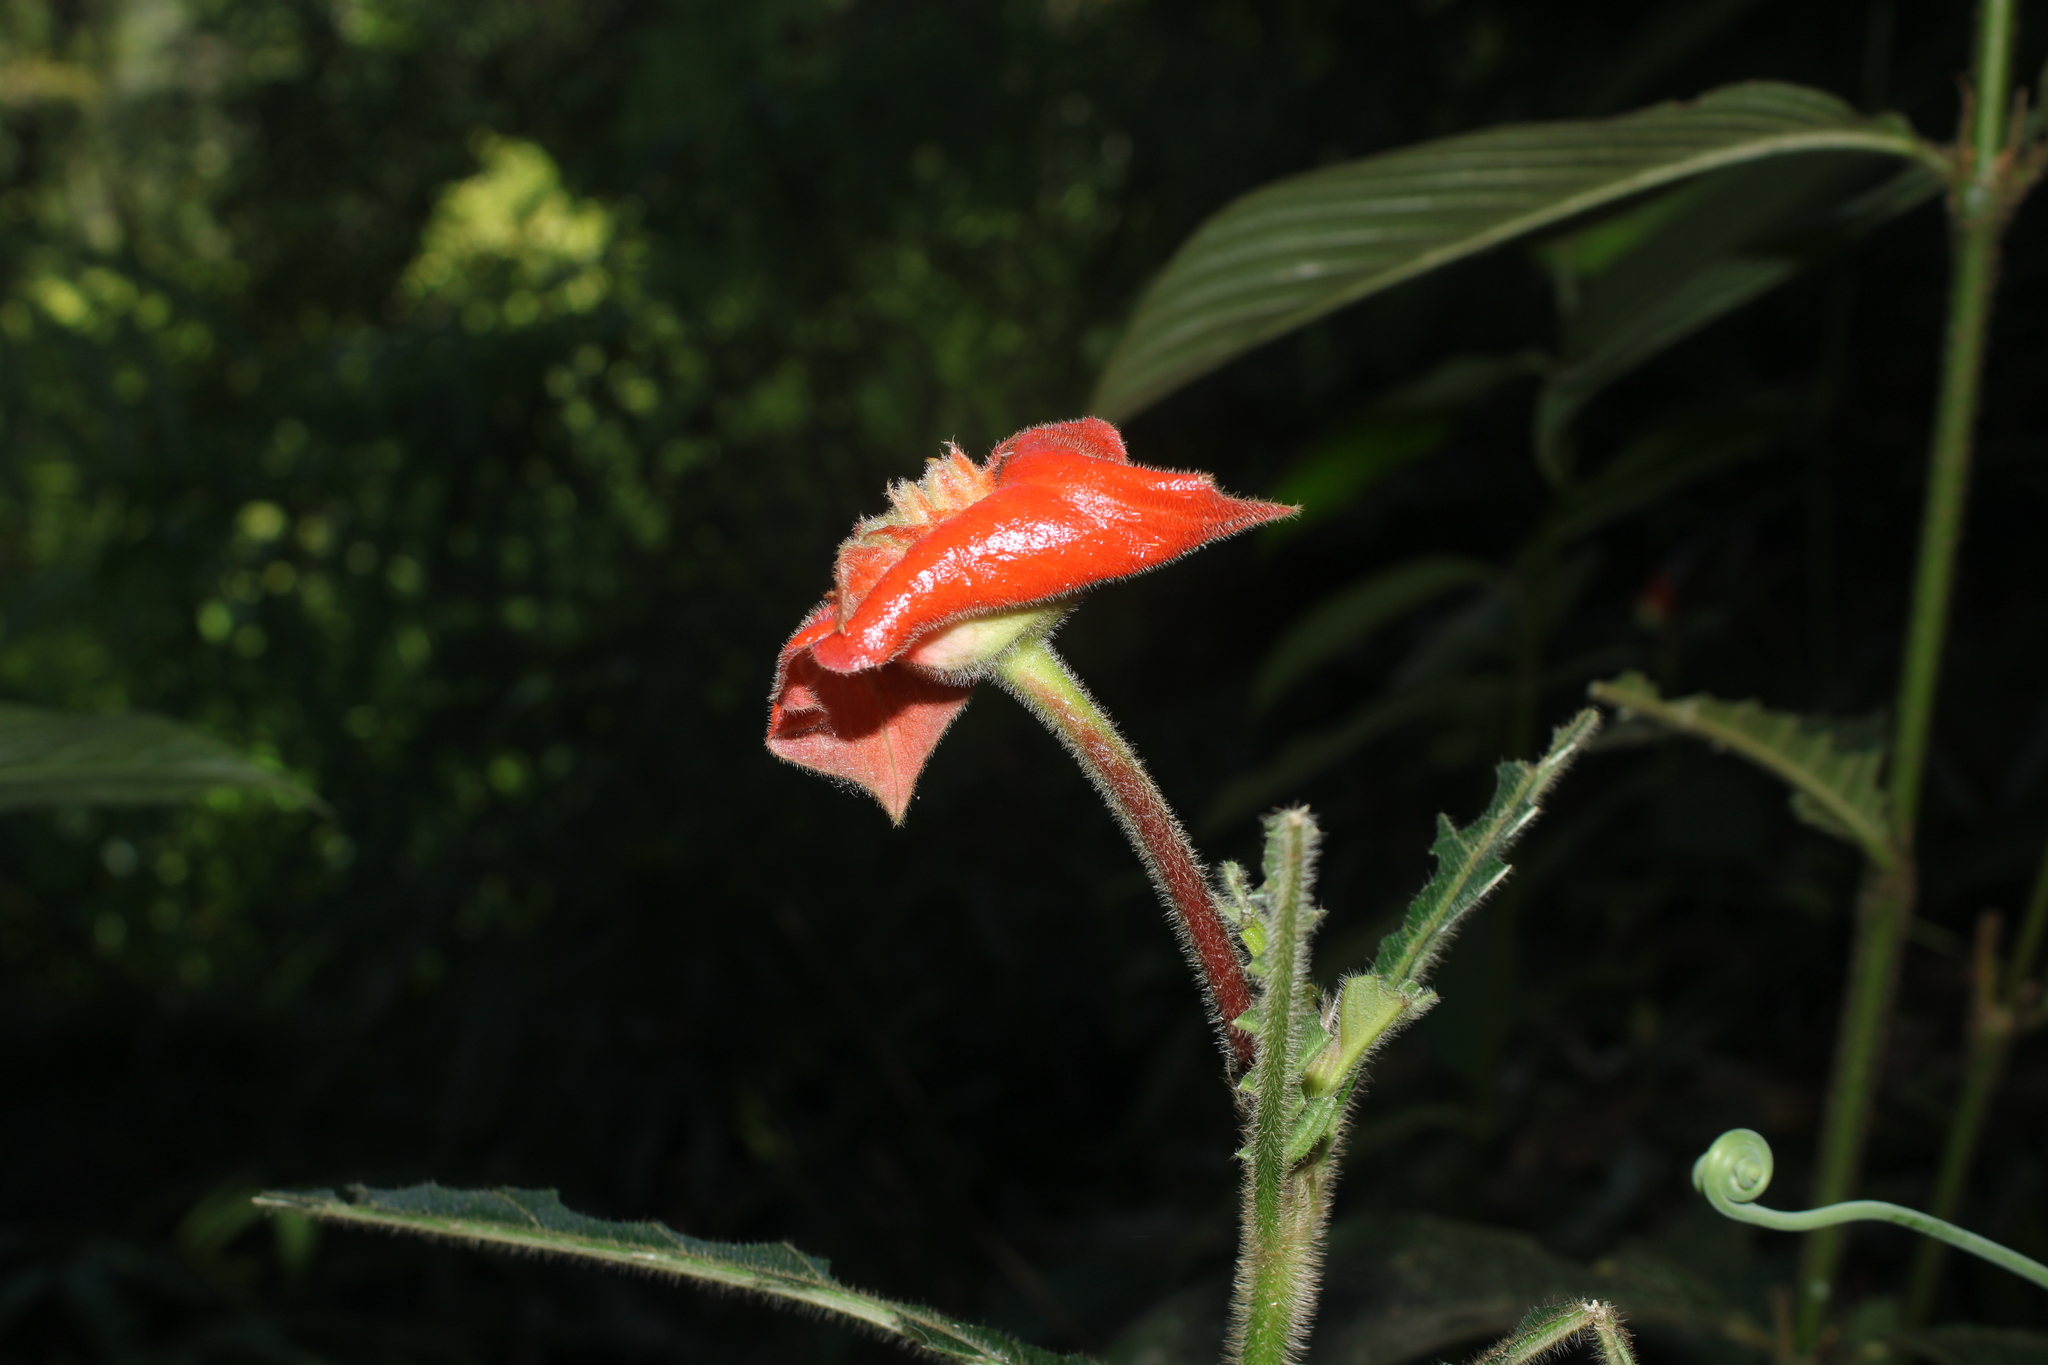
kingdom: Plantae
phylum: Tracheophyta
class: Magnoliopsida
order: Gentianales
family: Rubiaceae
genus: Palicourea
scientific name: Palicourea tomentosa
